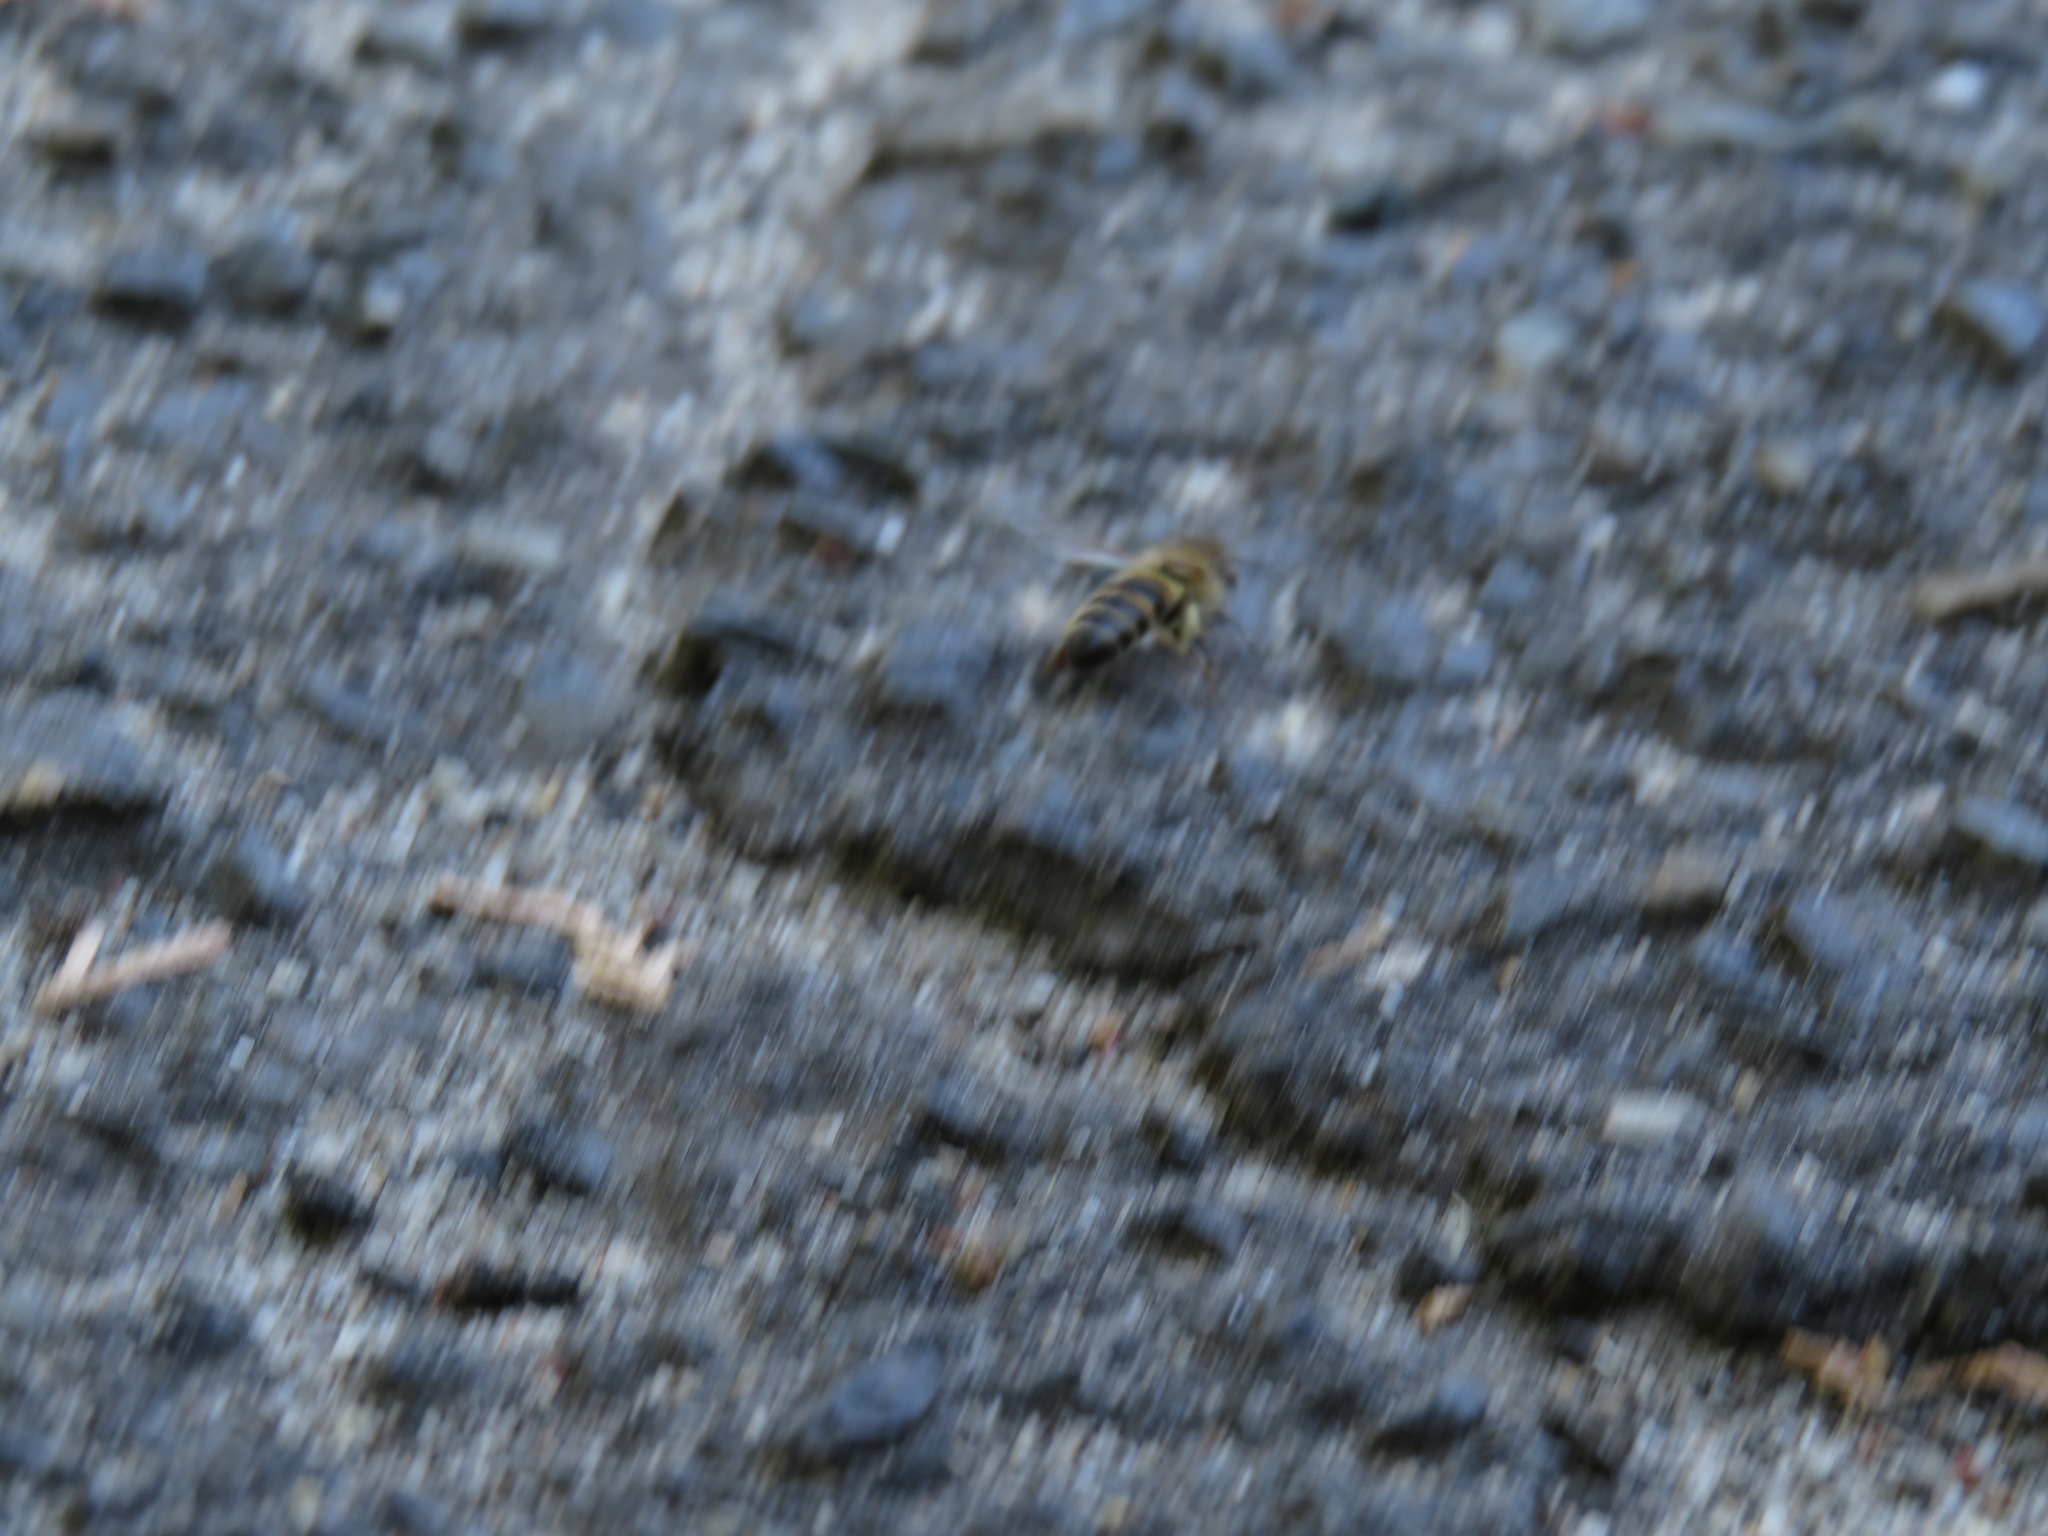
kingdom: Animalia
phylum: Arthropoda
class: Insecta
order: Hymenoptera
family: Apidae
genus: Apis
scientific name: Apis mellifera
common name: Honey bee
